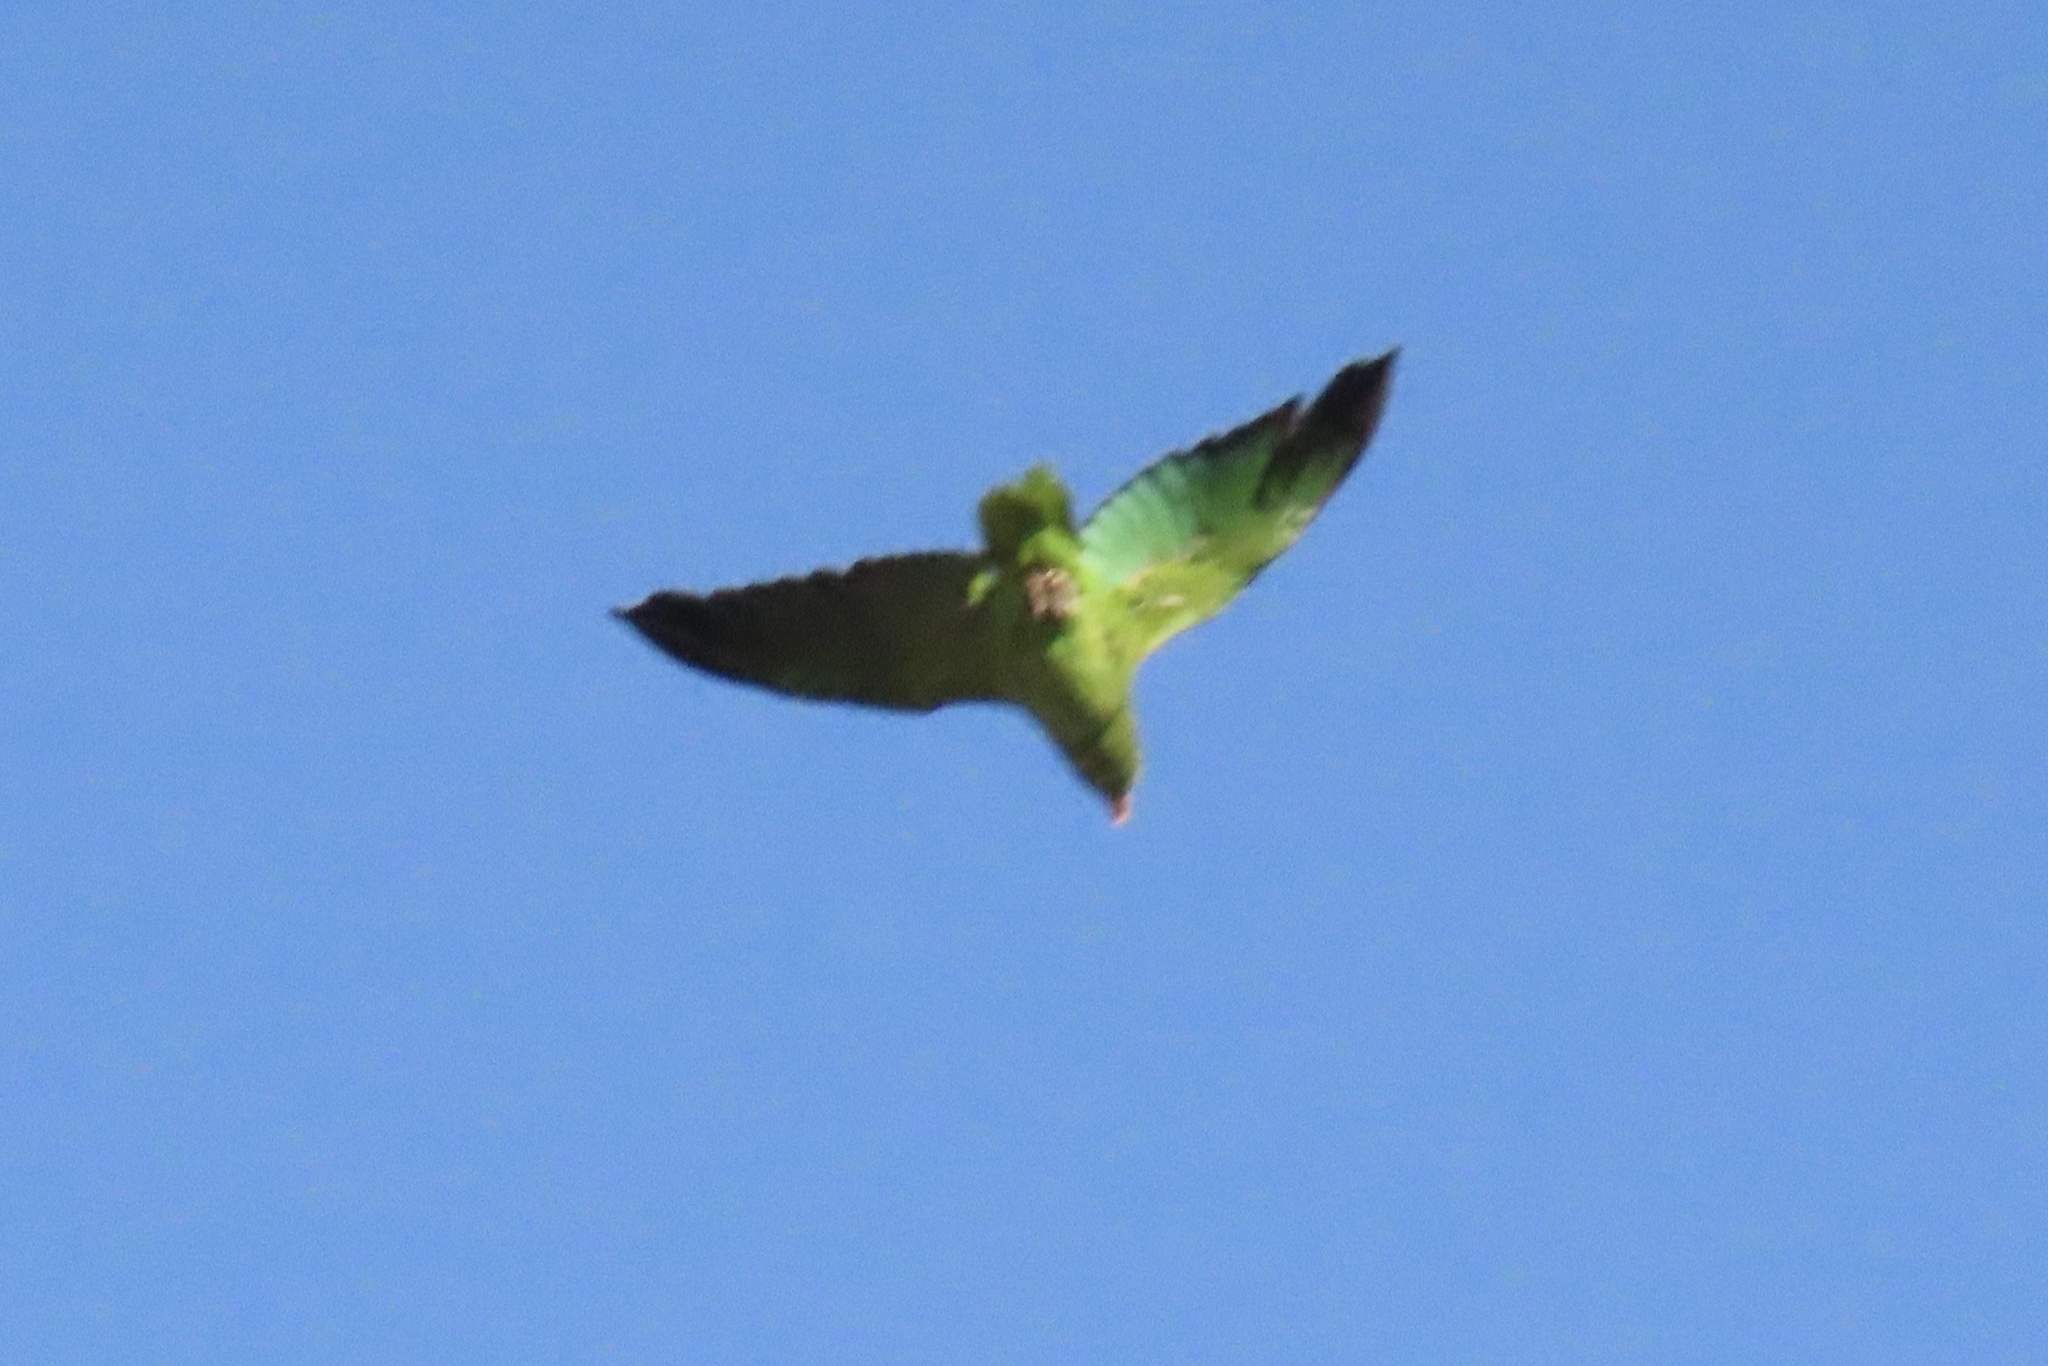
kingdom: Animalia
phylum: Chordata
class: Aves
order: Psittaciformes
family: Psittacidae
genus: Amazona
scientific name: Amazona viridigenalis
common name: Red-crowned amazon
